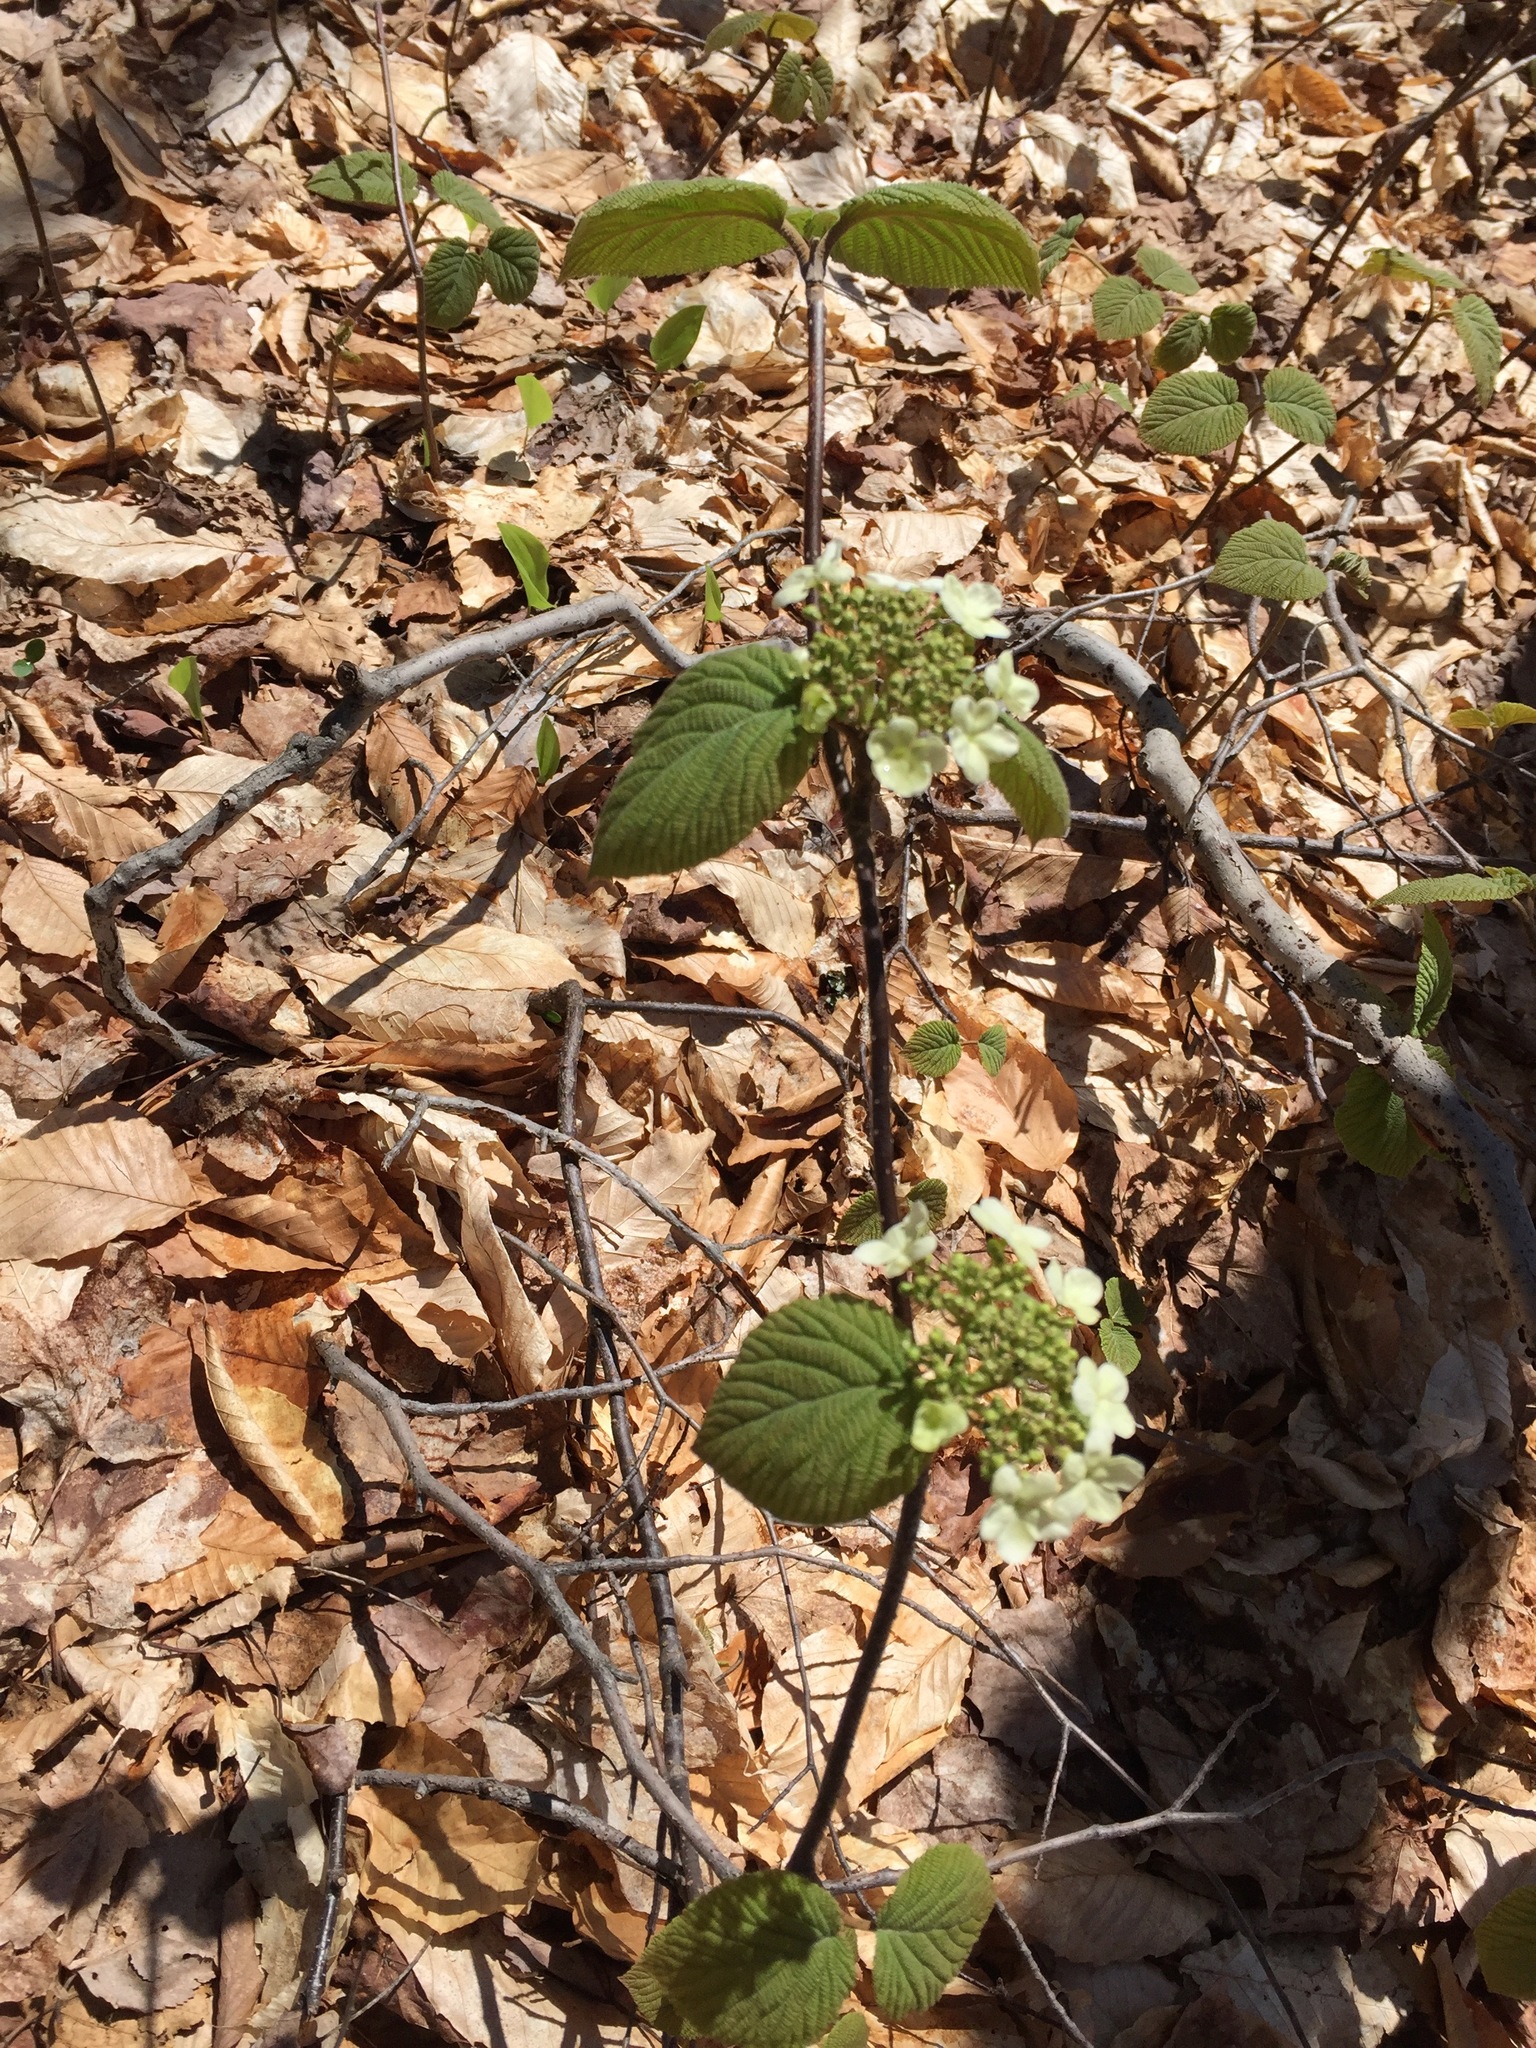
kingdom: Plantae
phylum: Tracheophyta
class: Magnoliopsida
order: Dipsacales
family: Viburnaceae
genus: Viburnum
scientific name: Viburnum lantanoides
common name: Hobblebush
